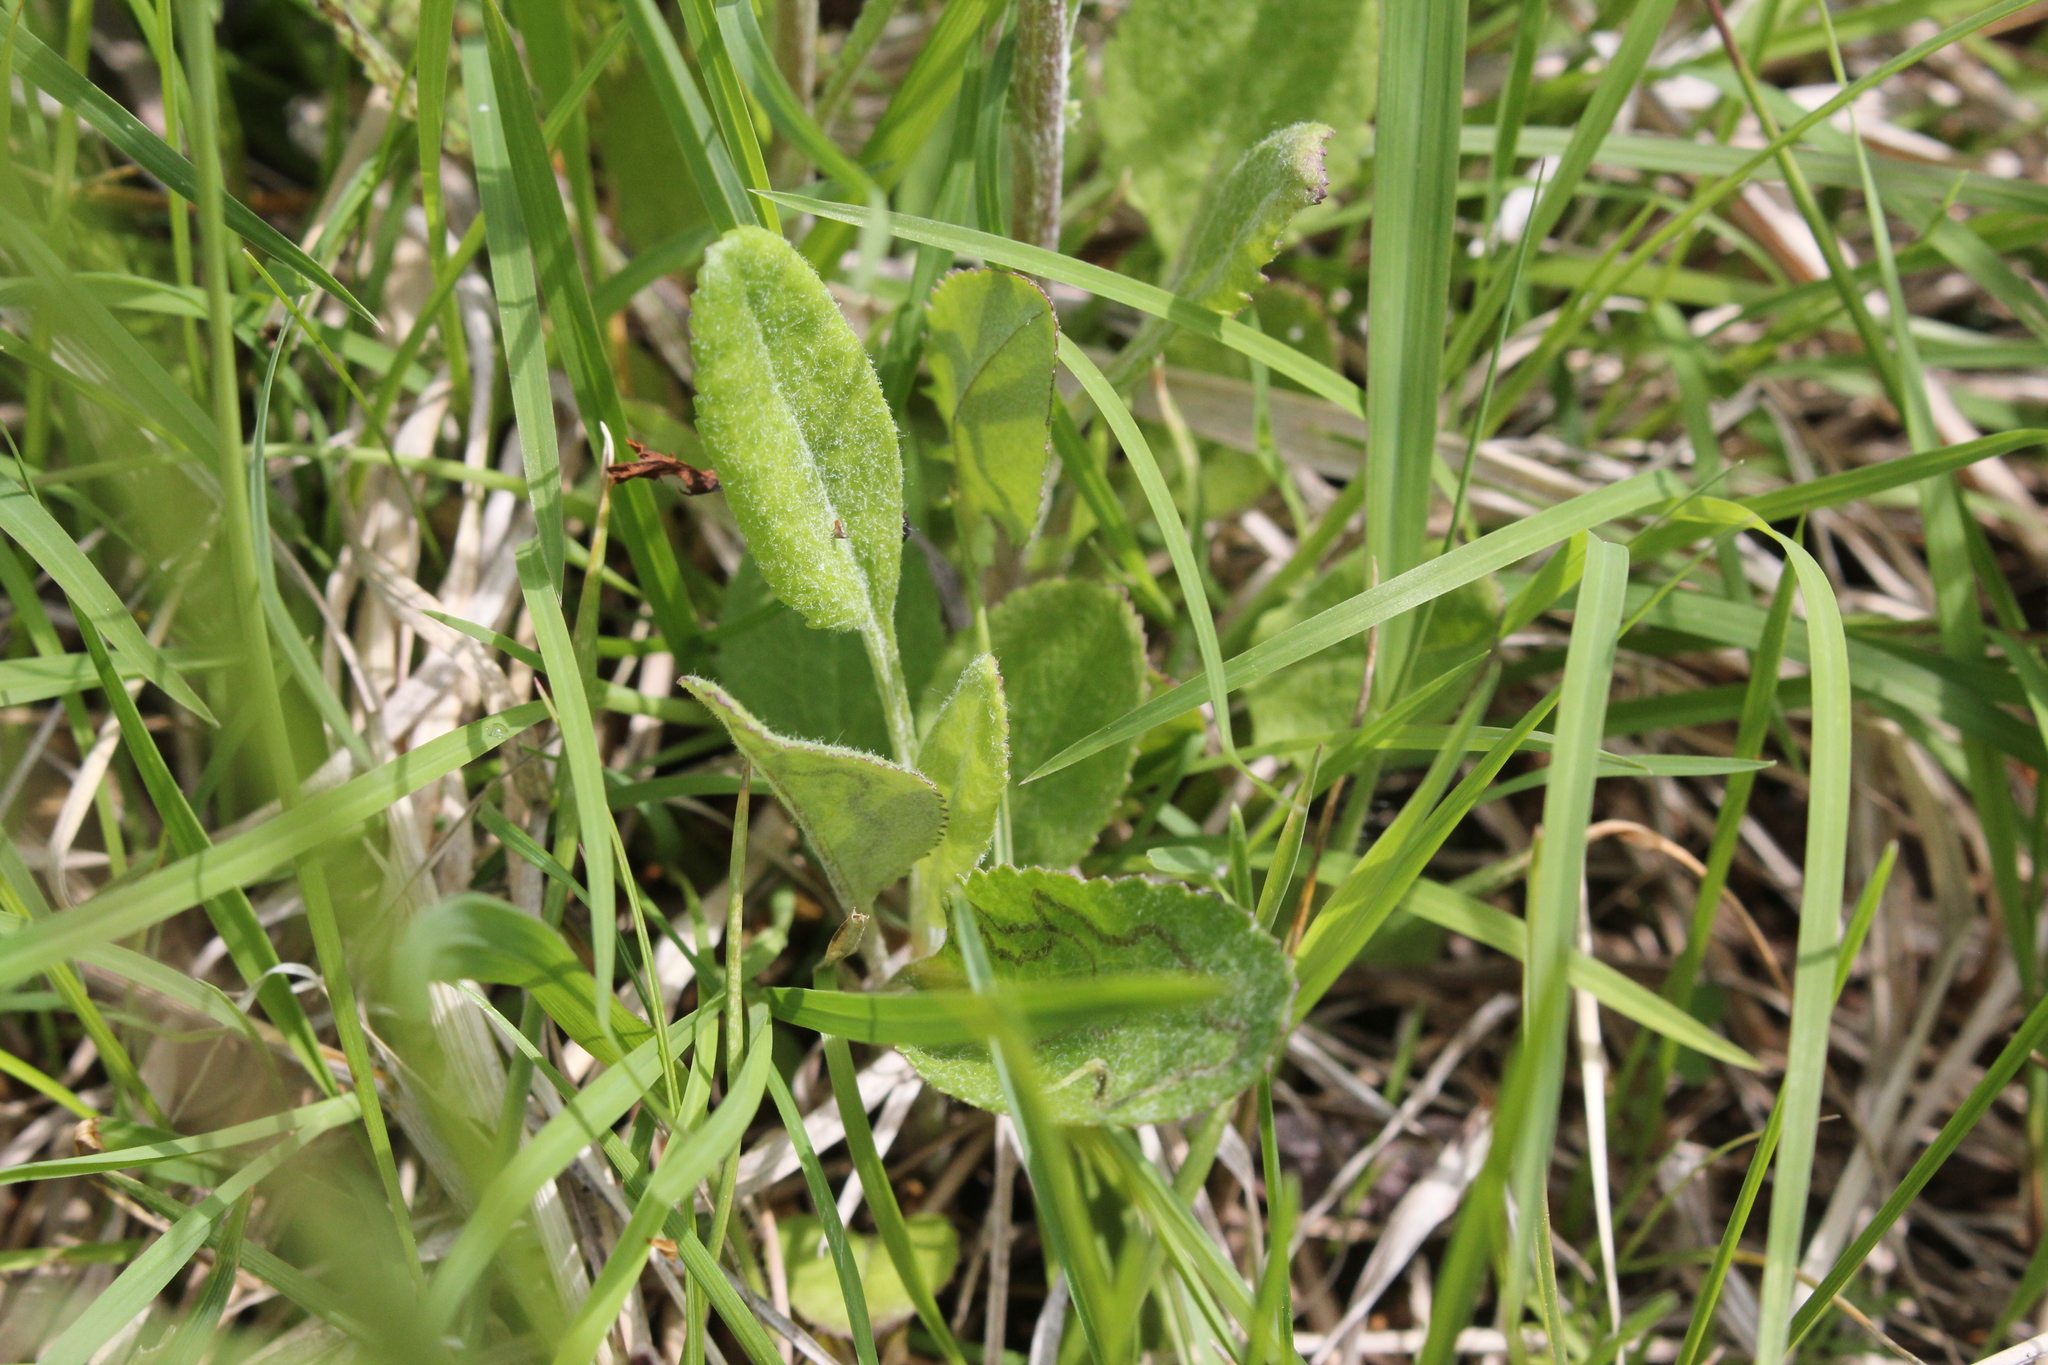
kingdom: Plantae
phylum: Tracheophyta
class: Magnoliopsida
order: Asterales
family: Asteraceae
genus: Packera
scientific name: Packera paupercula
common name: Balsam groundsel
